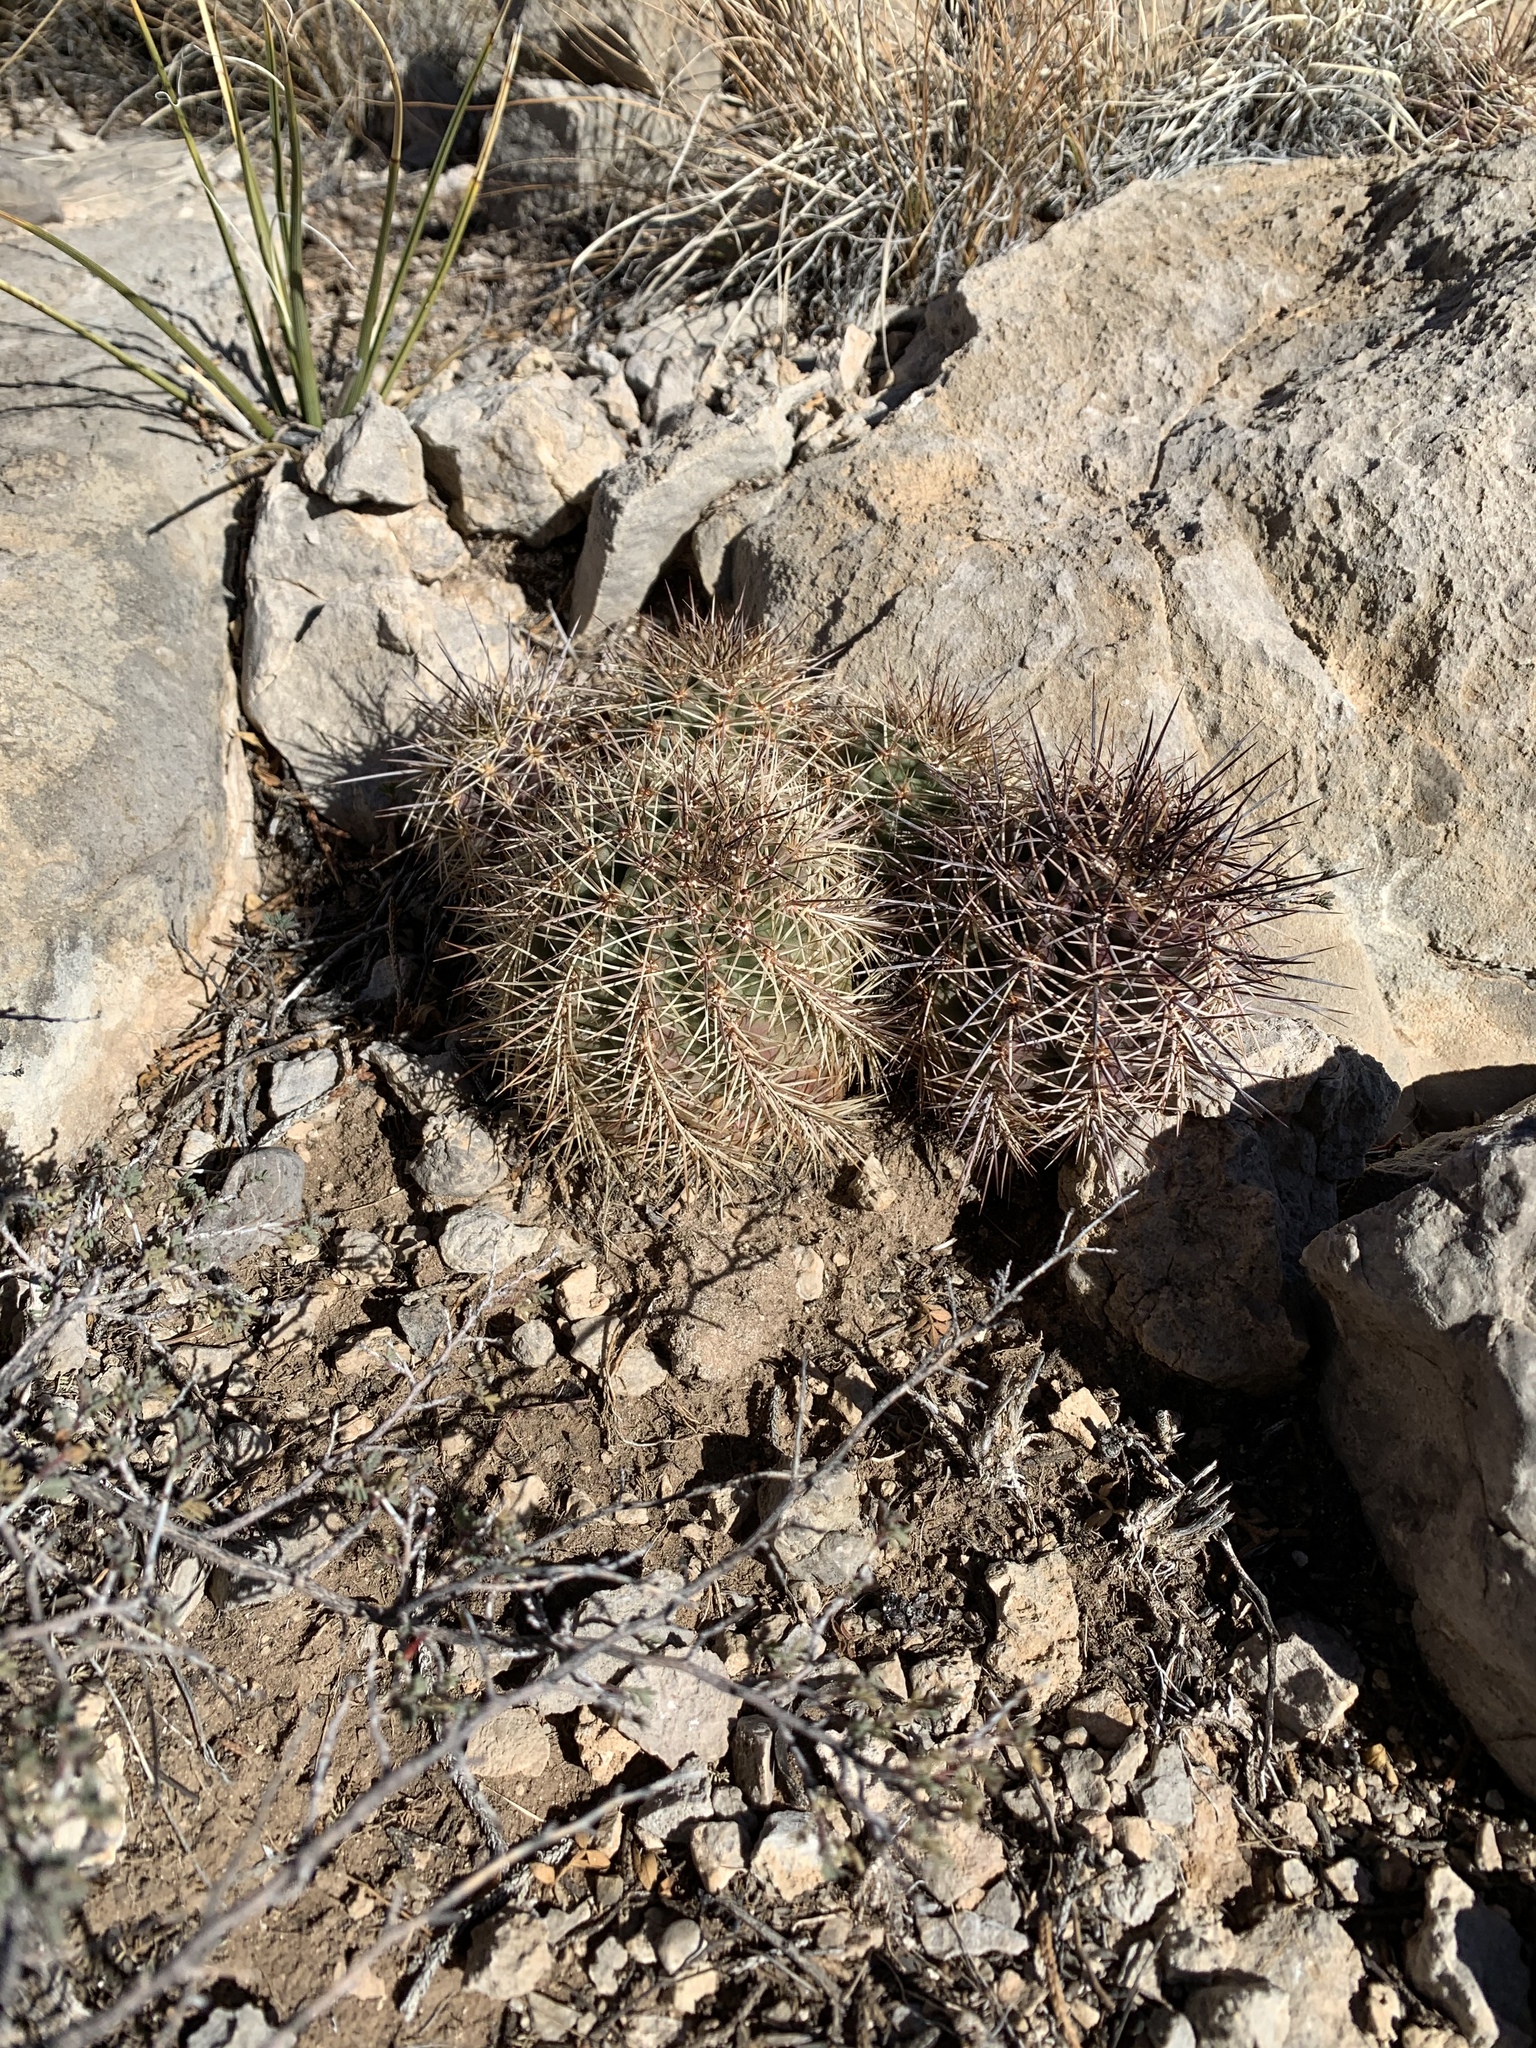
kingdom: Plantae
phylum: Tracheophyta
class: Magnoliopsida
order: Caryophyllales
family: Cactaceae
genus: Echinocereus
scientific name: Echinocereus coccineus
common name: Scarlet hedgehog cactus
